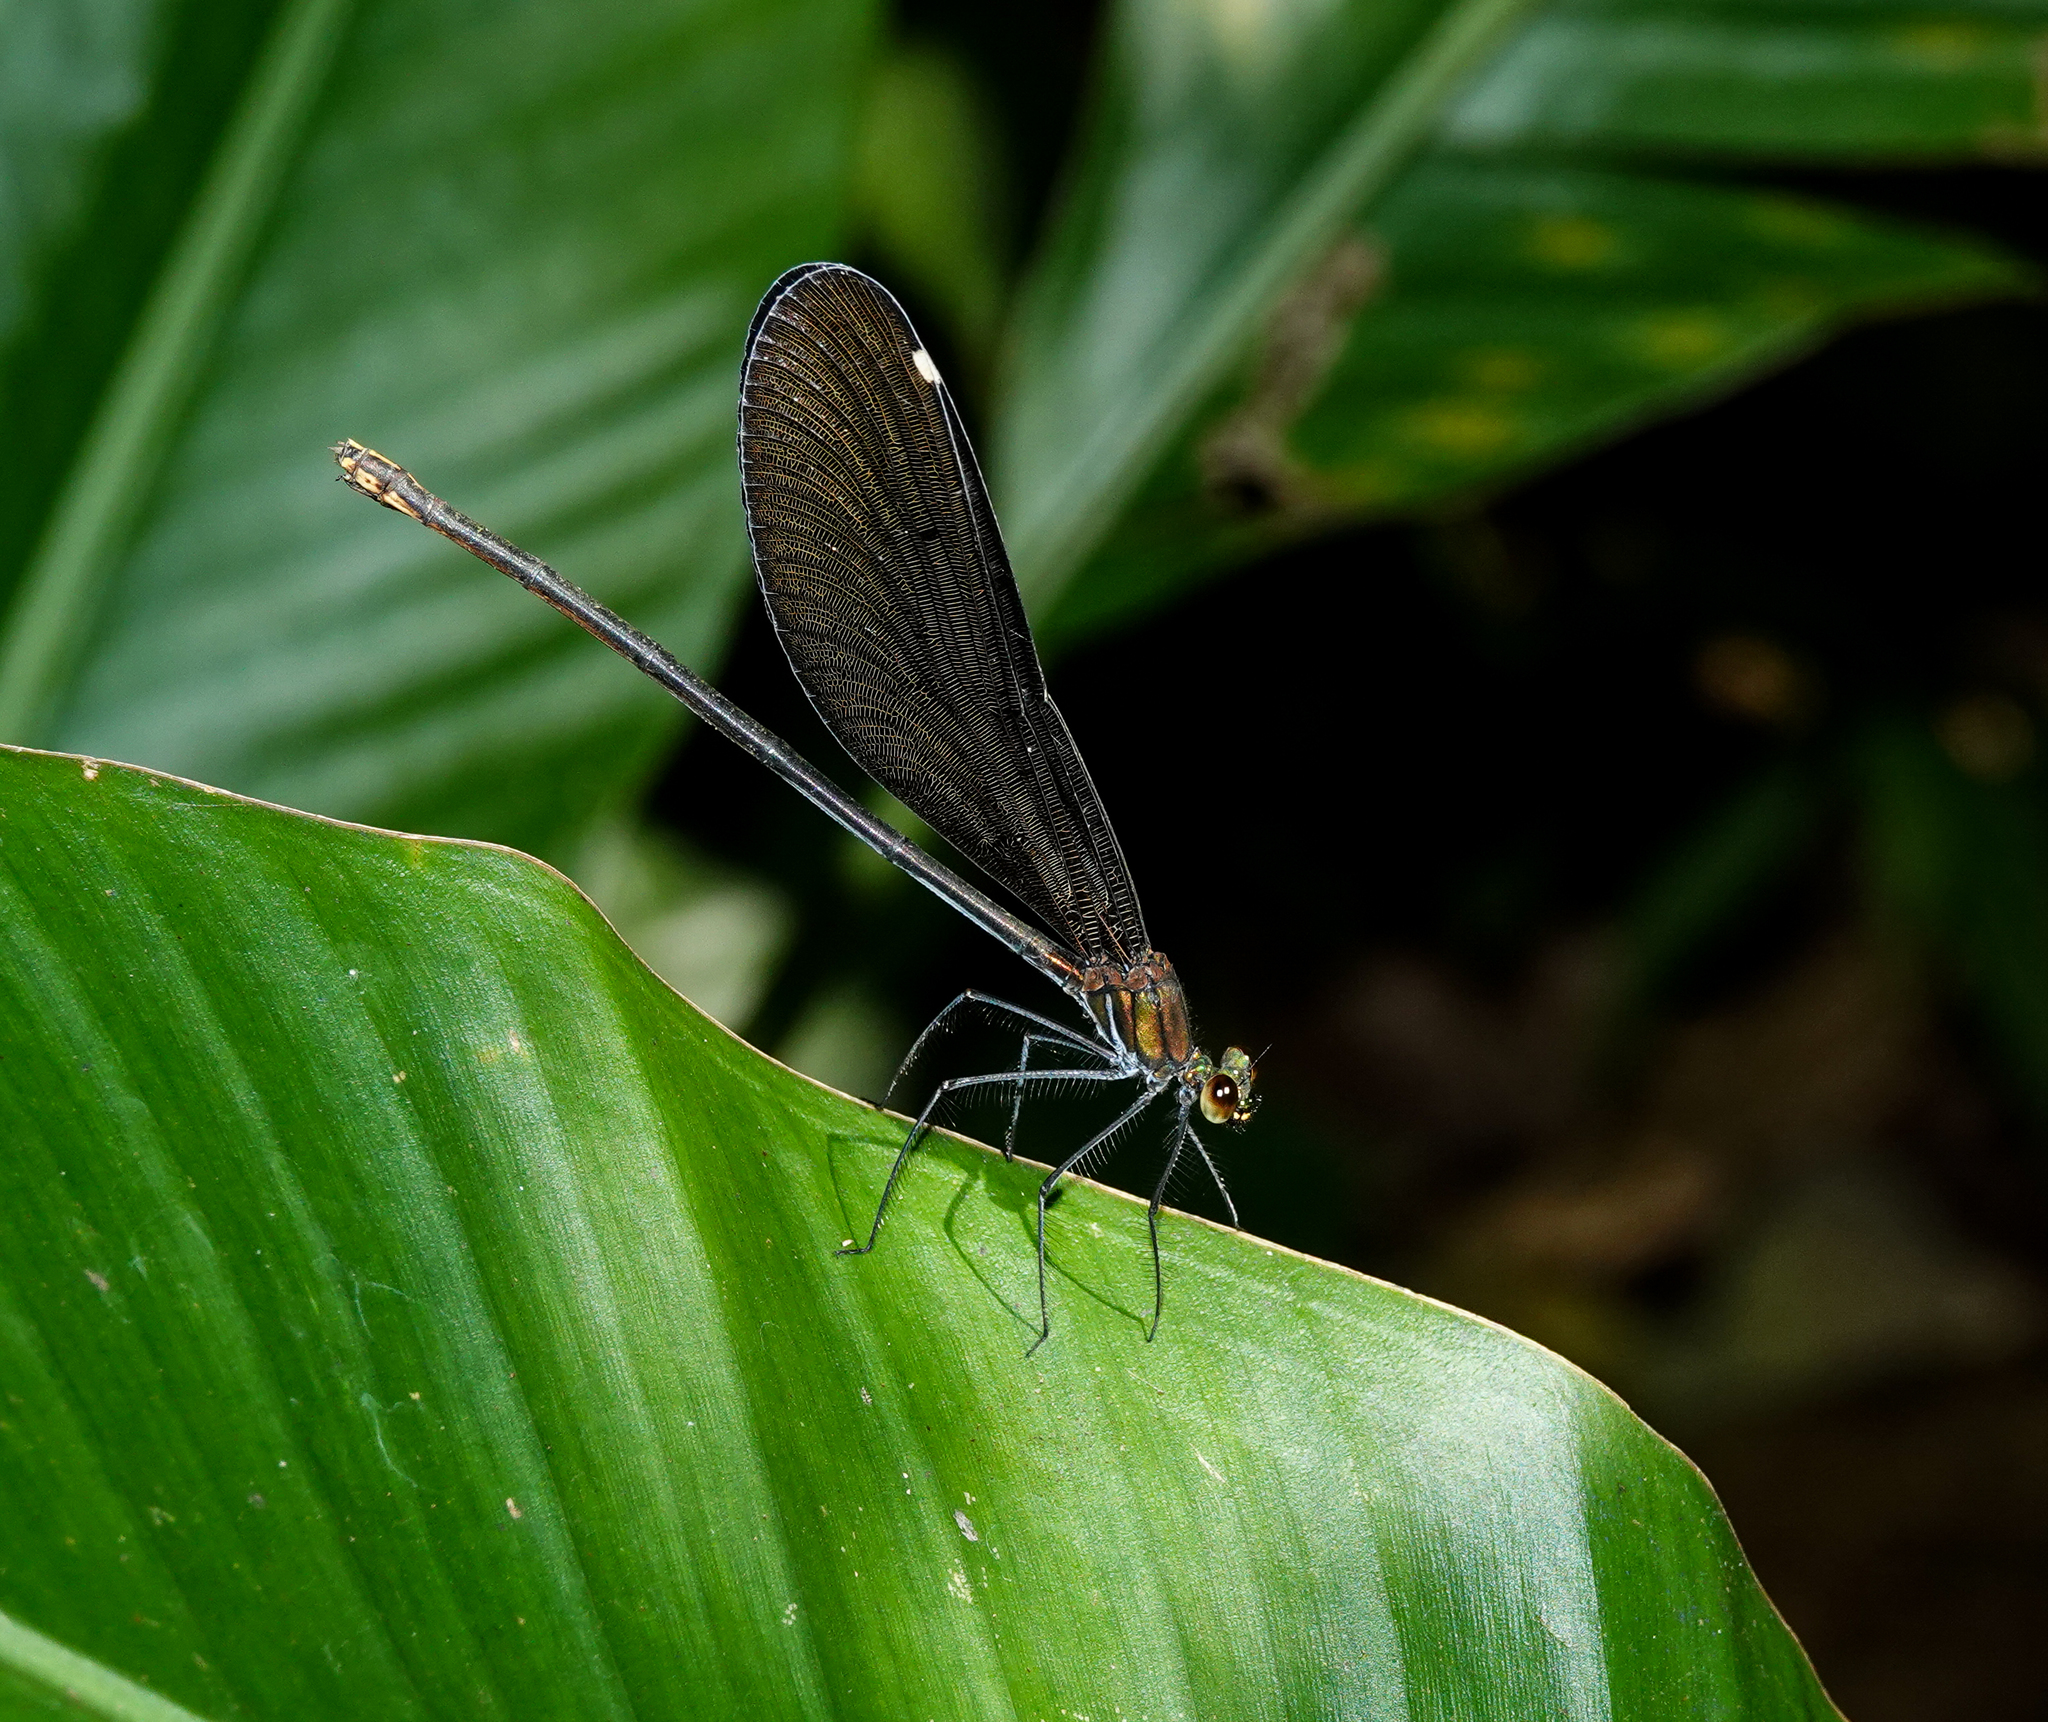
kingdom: Animalia
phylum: Arthropoda
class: Insecta
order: Odonata
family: Calopterygidae
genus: Matrona
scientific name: Matrona nigripectus
